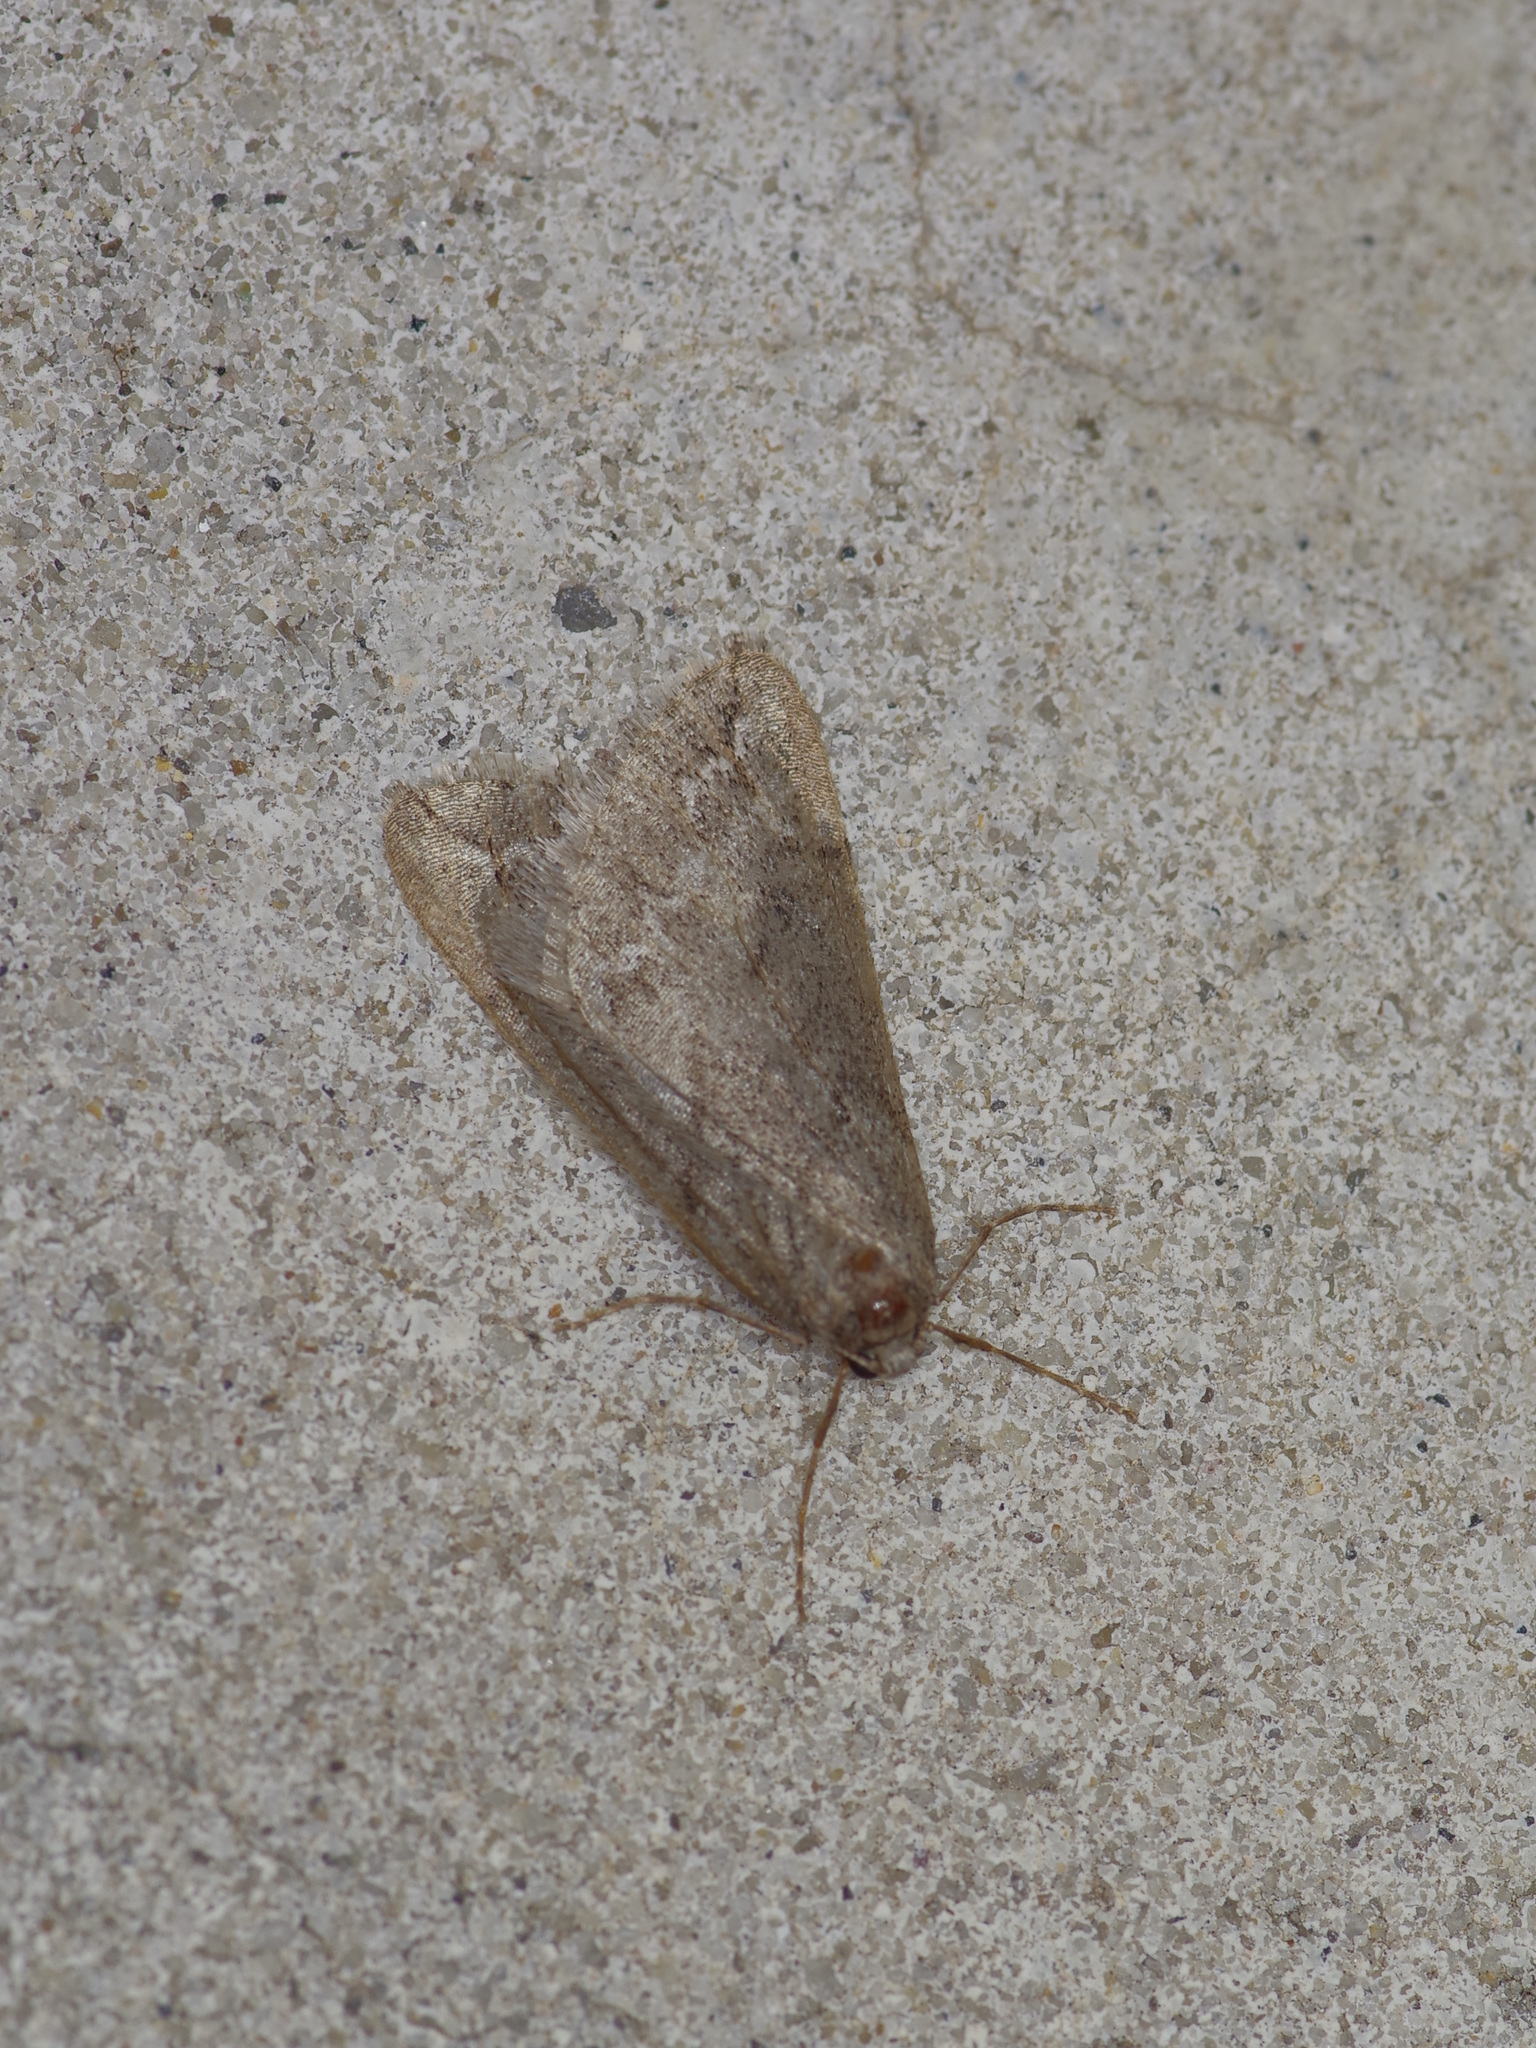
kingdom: Animalia
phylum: Arthropoda
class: Insecta
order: Lepidoptera
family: Geometridae
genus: Paleacrita
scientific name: Paleacrita vernata
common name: Spring cankerworm
